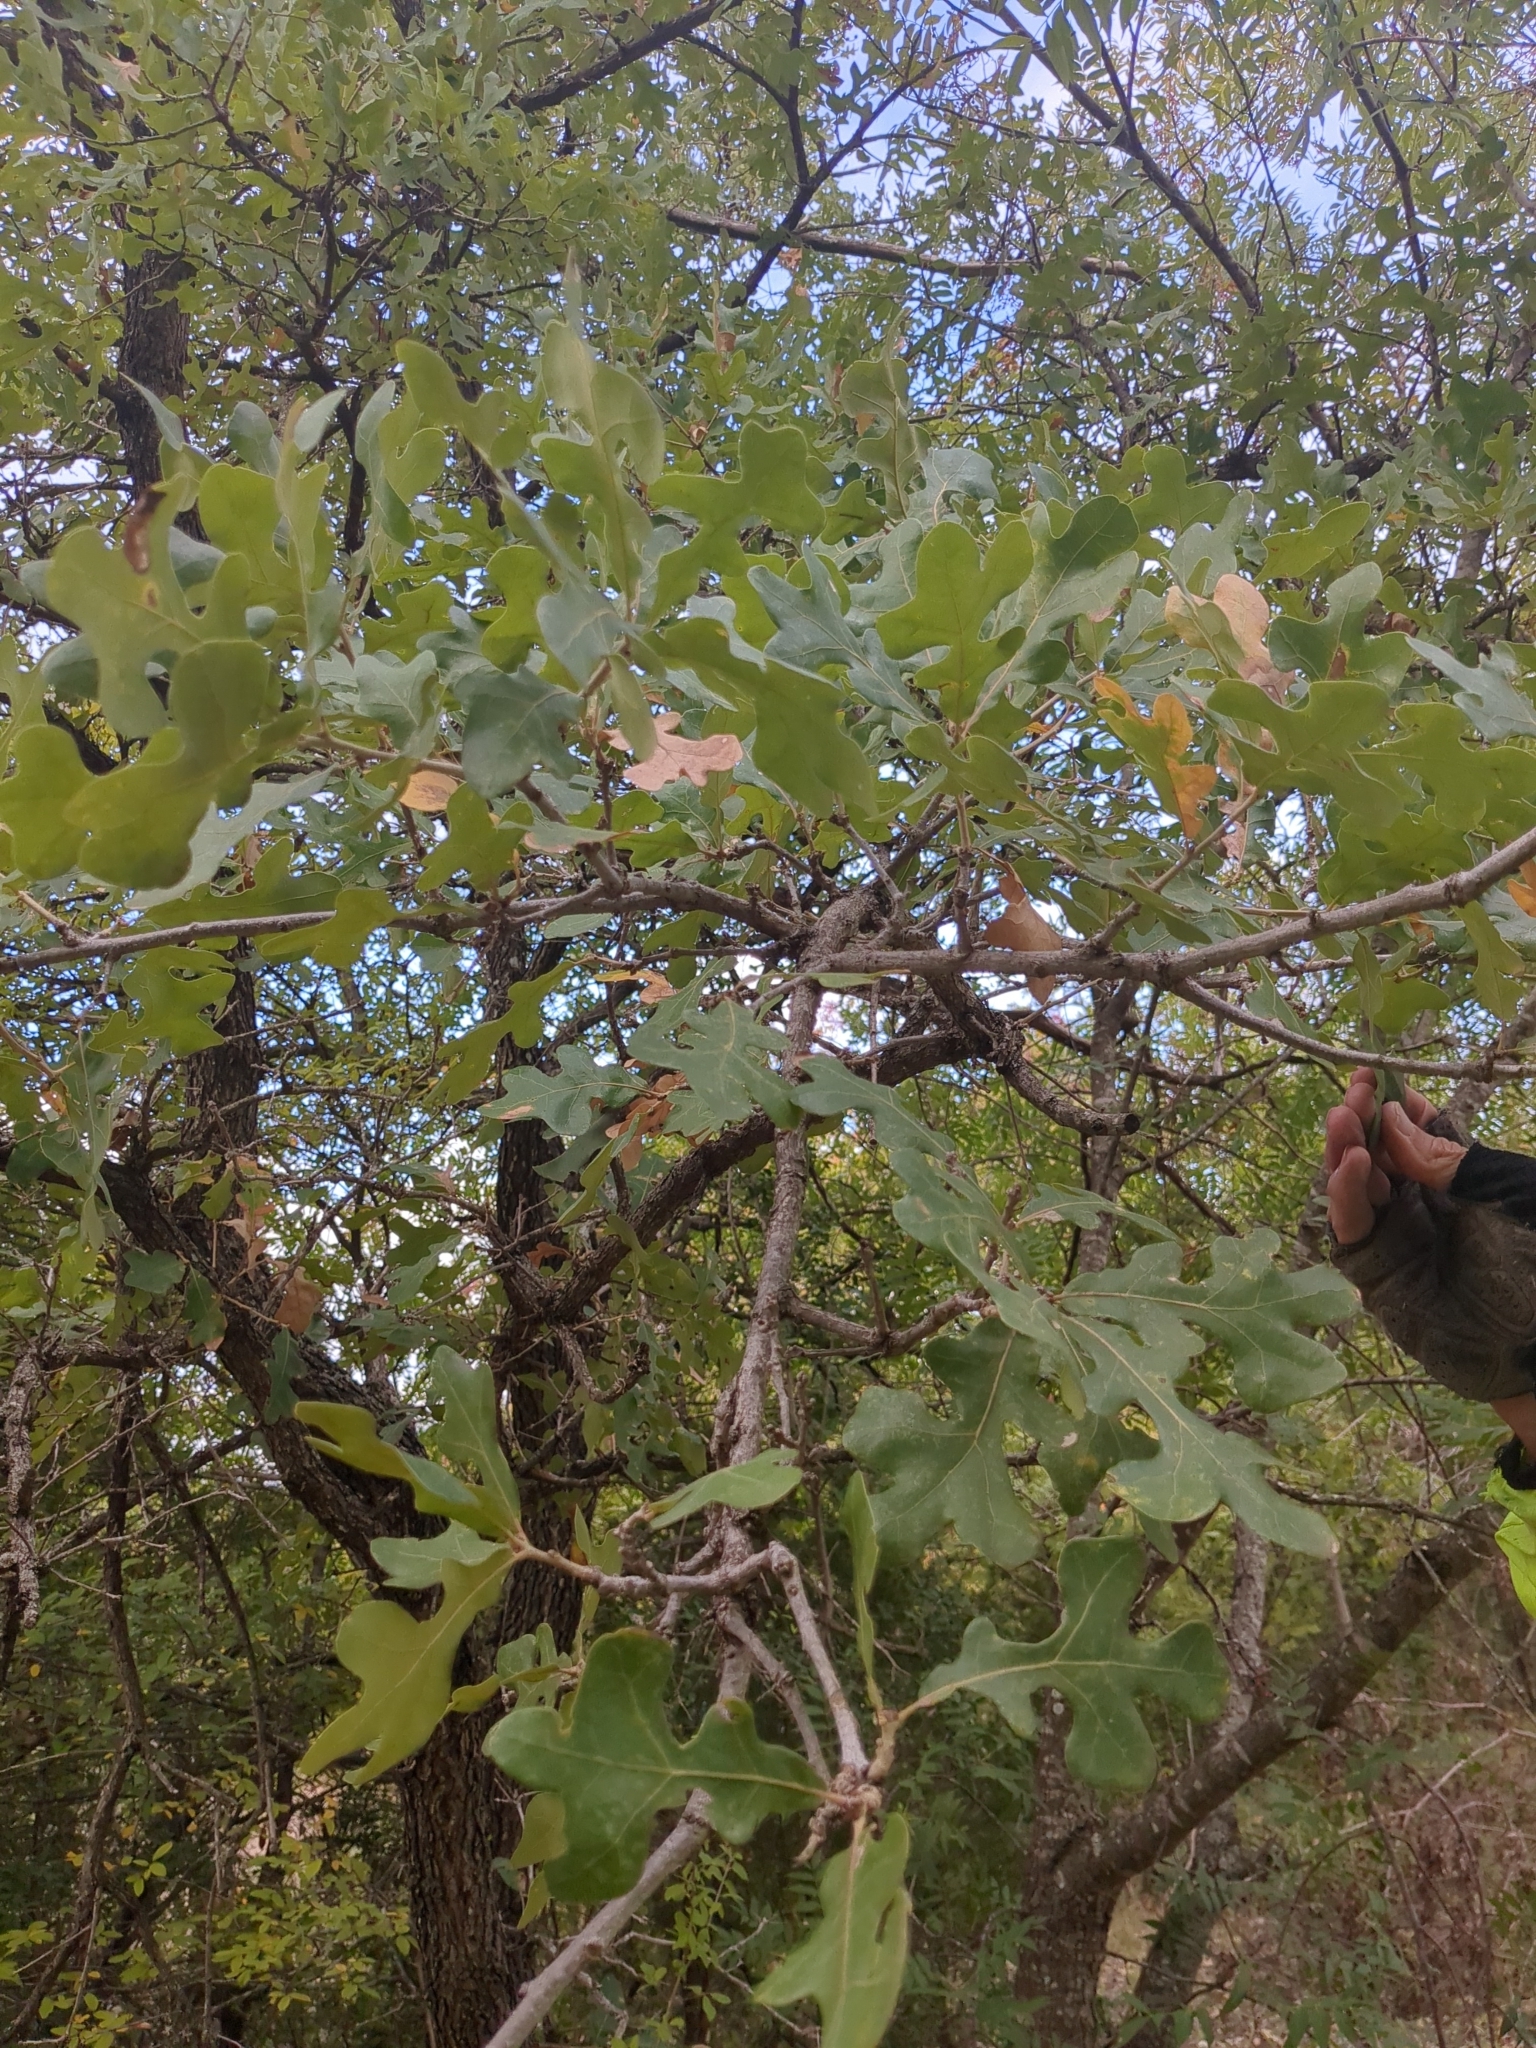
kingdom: Plantae
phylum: Tracheophyta
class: Magnoliopsida
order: Fagales
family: Fagaceae
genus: Quercus
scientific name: Quercus stellata
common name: Post oak
